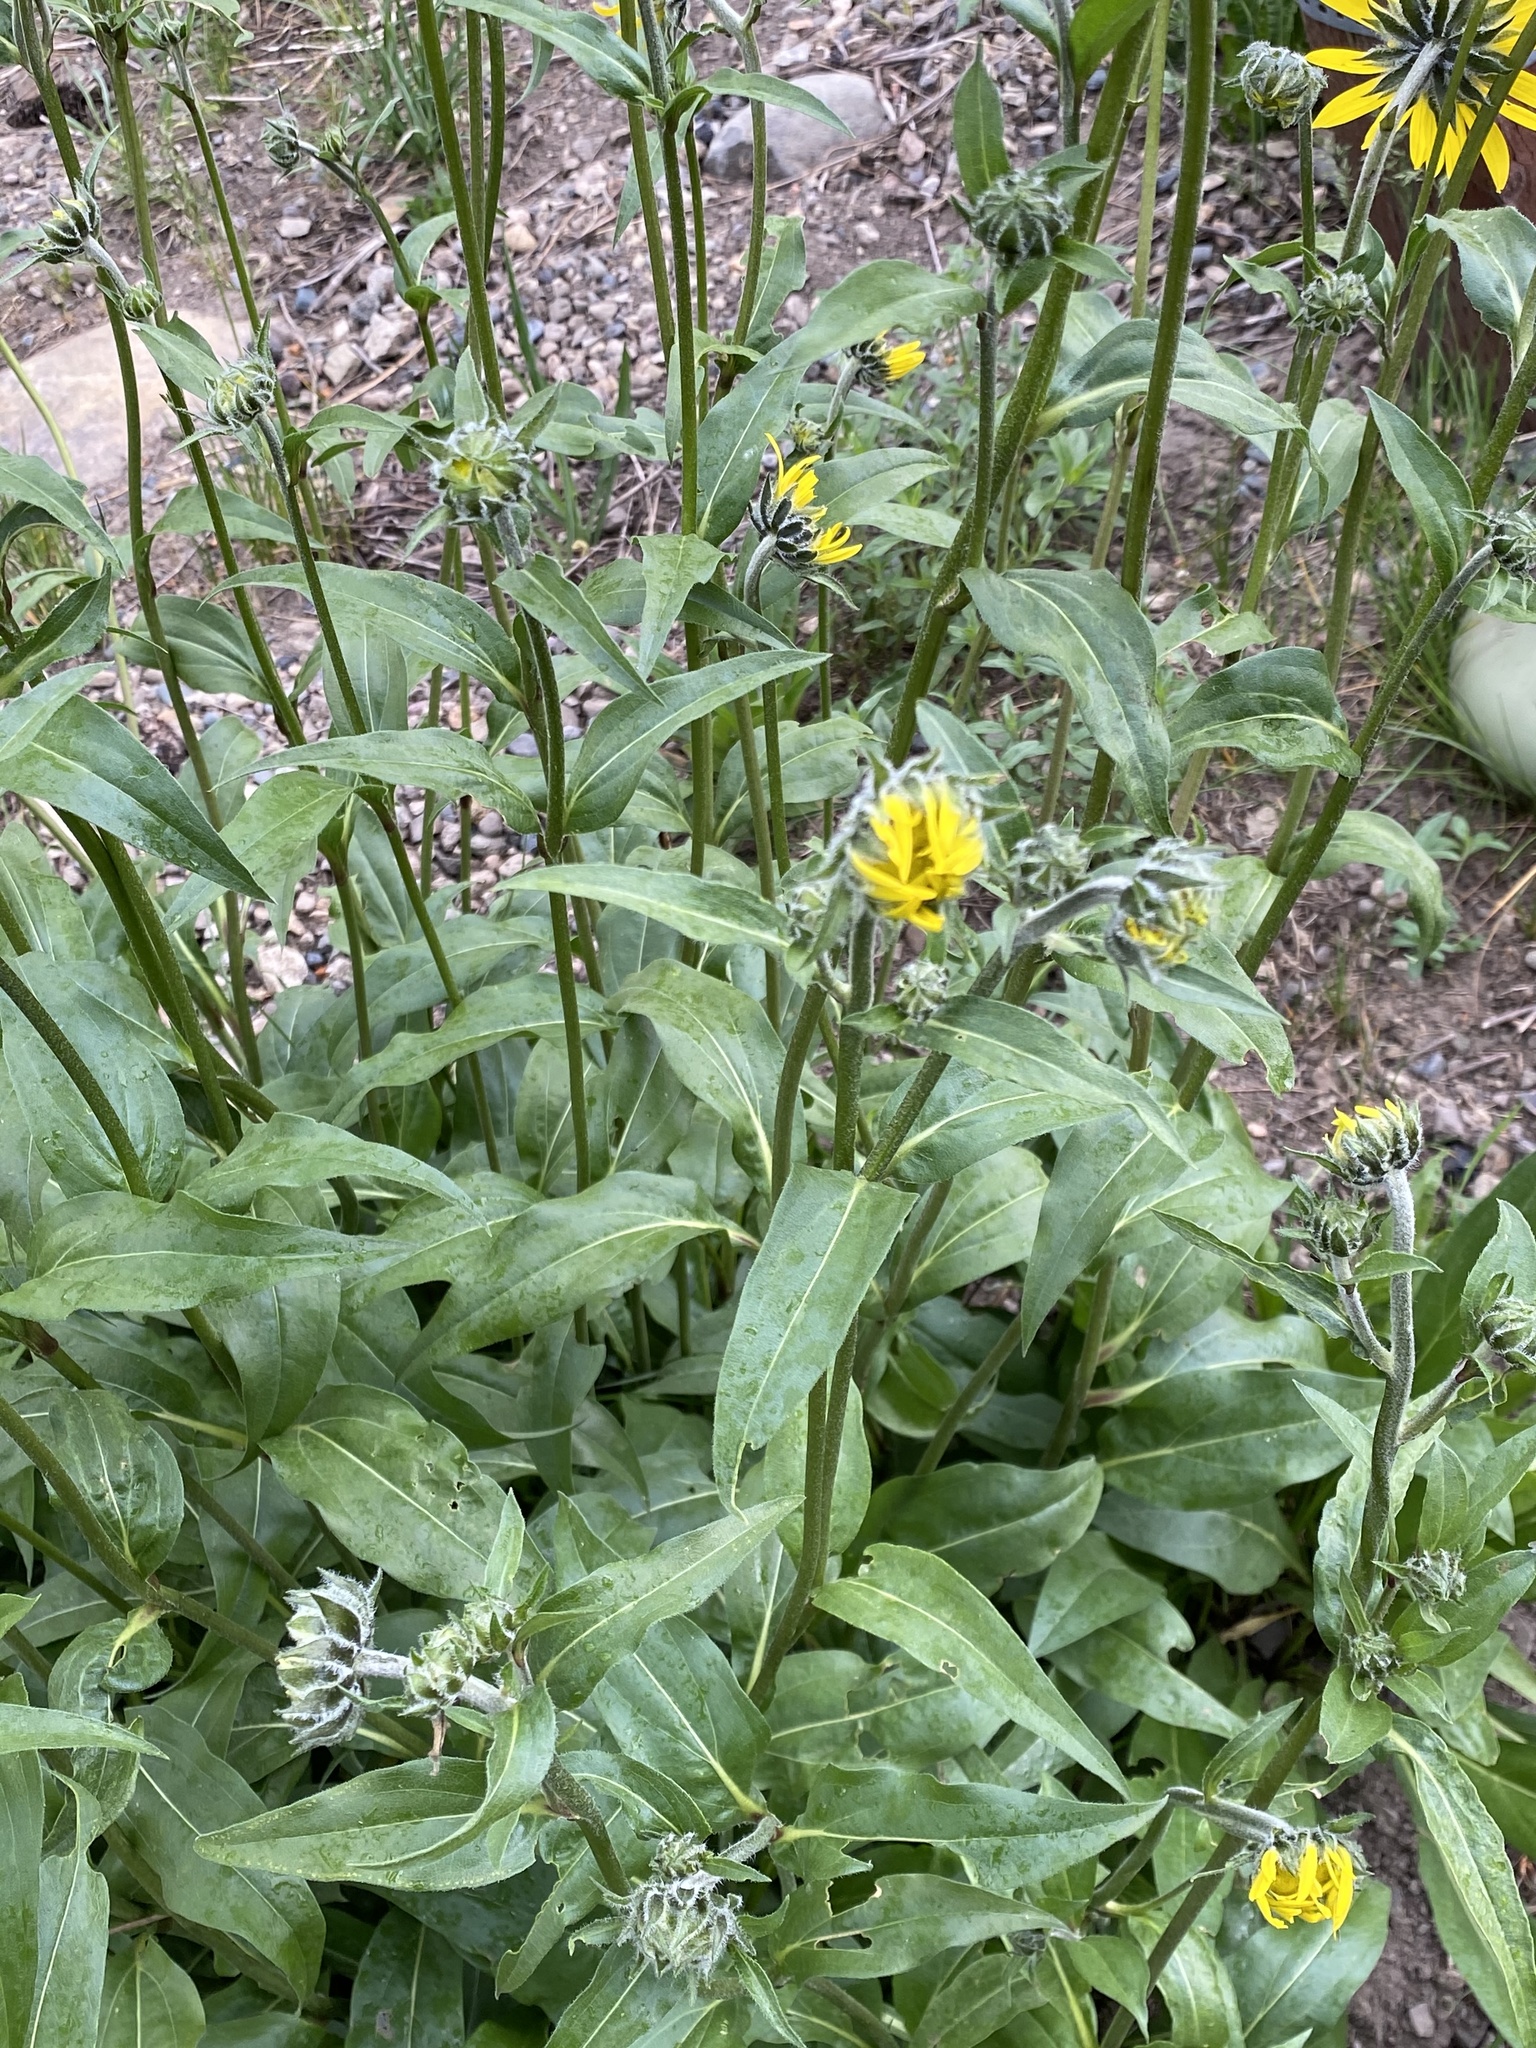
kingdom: Plantae
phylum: Tracheophyta
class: Magnoliopsida
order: Asterales
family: Asteraceae
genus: Helianthella
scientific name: Helianthella quinquenervis
